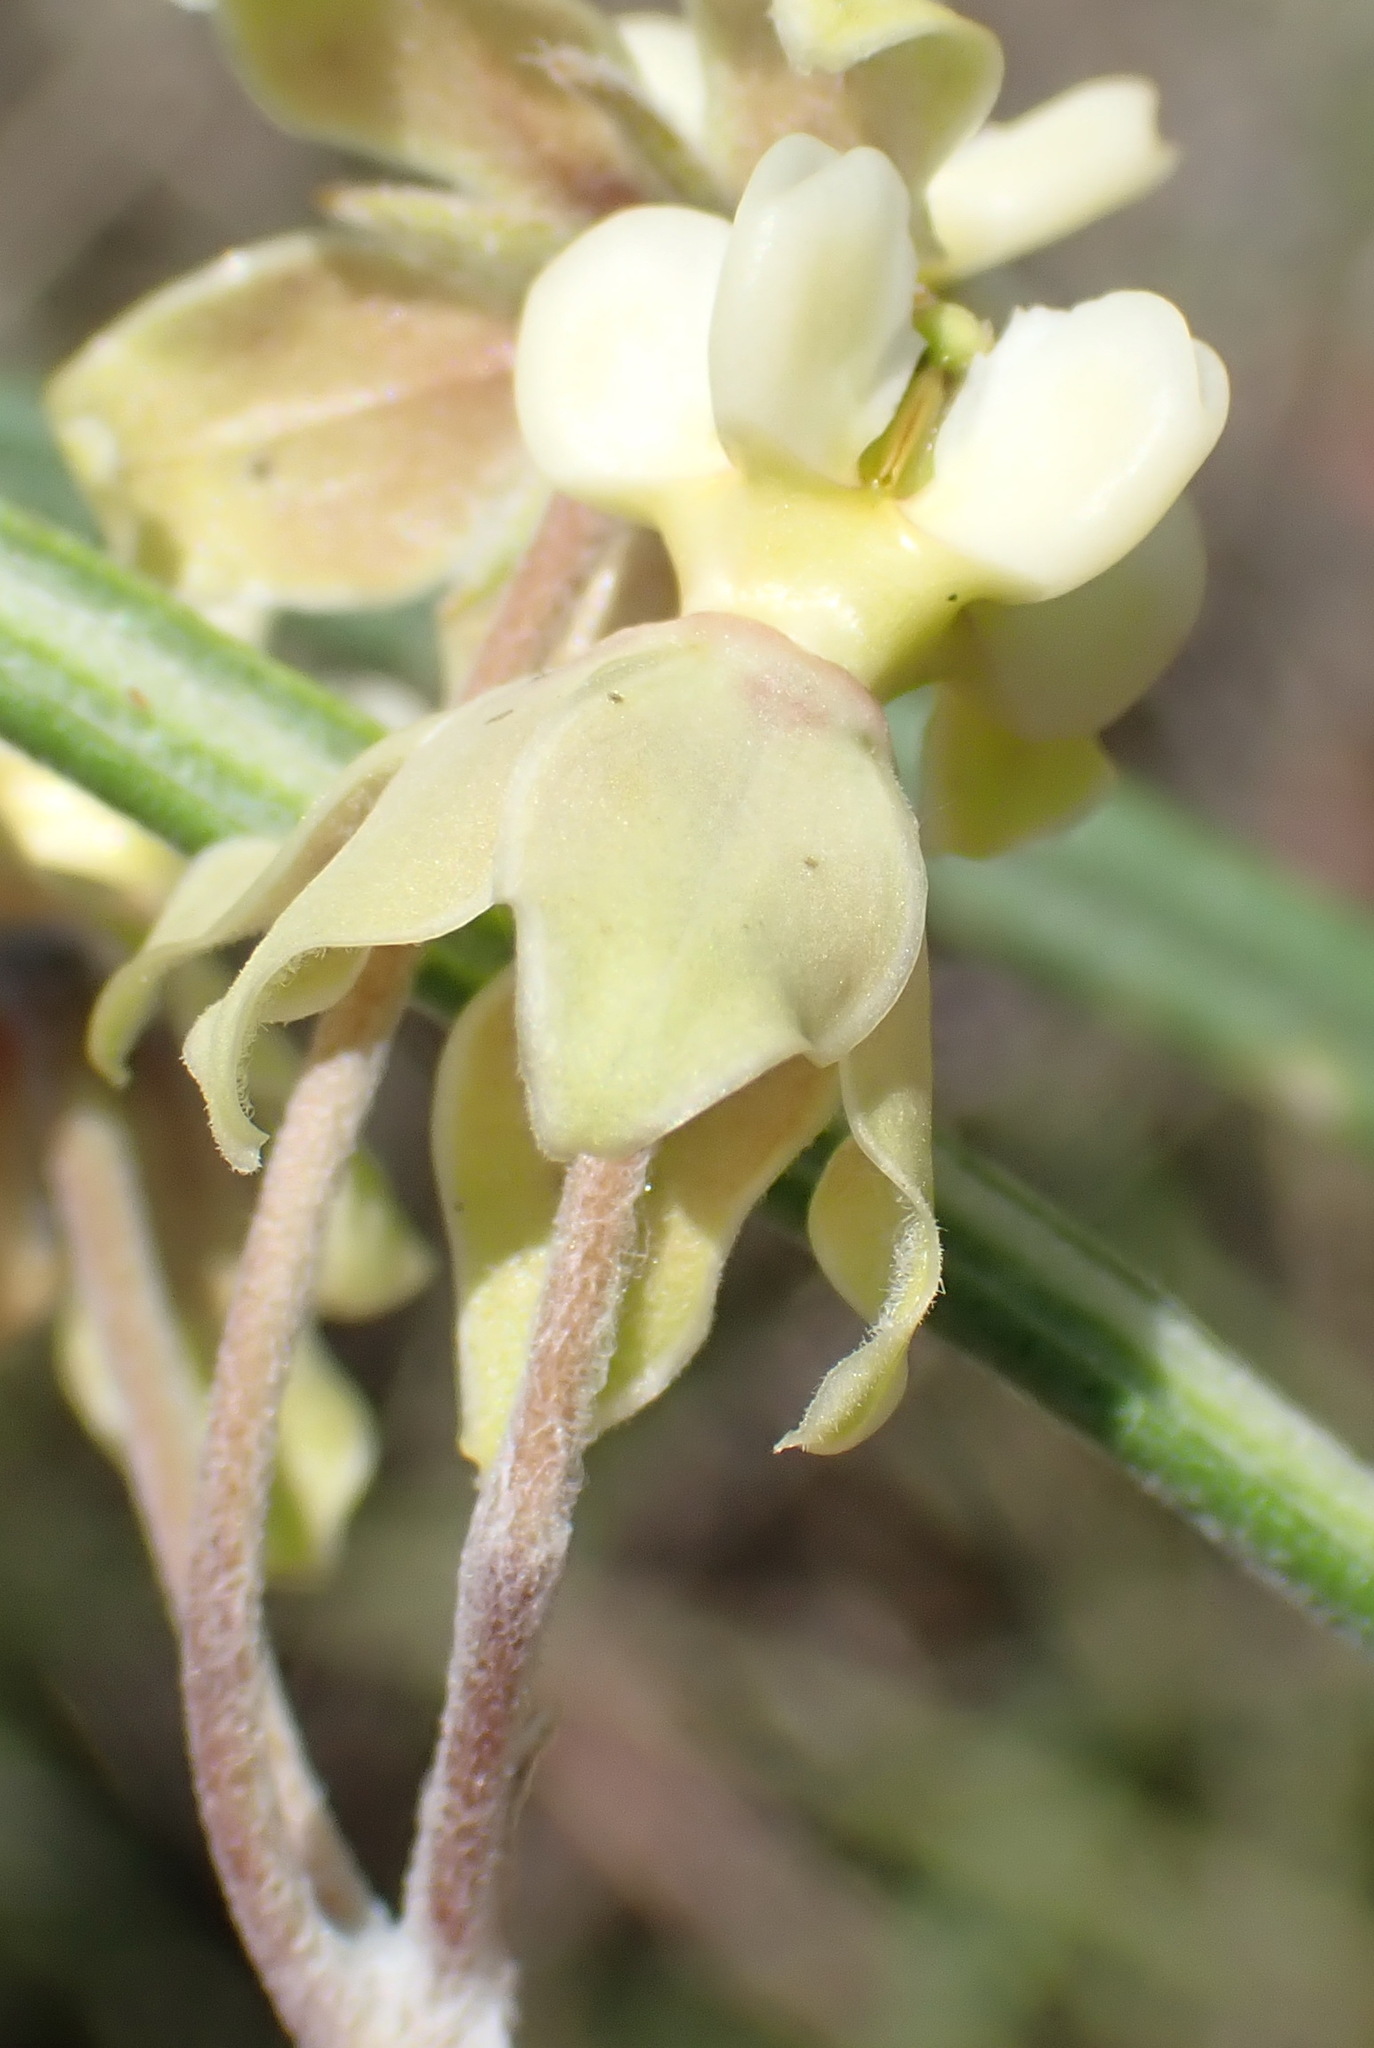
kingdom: Plantae
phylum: Tracheophyta
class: Magnoliopsida
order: Gentianales
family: Apocynaceae
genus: Gomphocarpus
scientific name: Gomphocarpus fruticosus
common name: Milkweed
